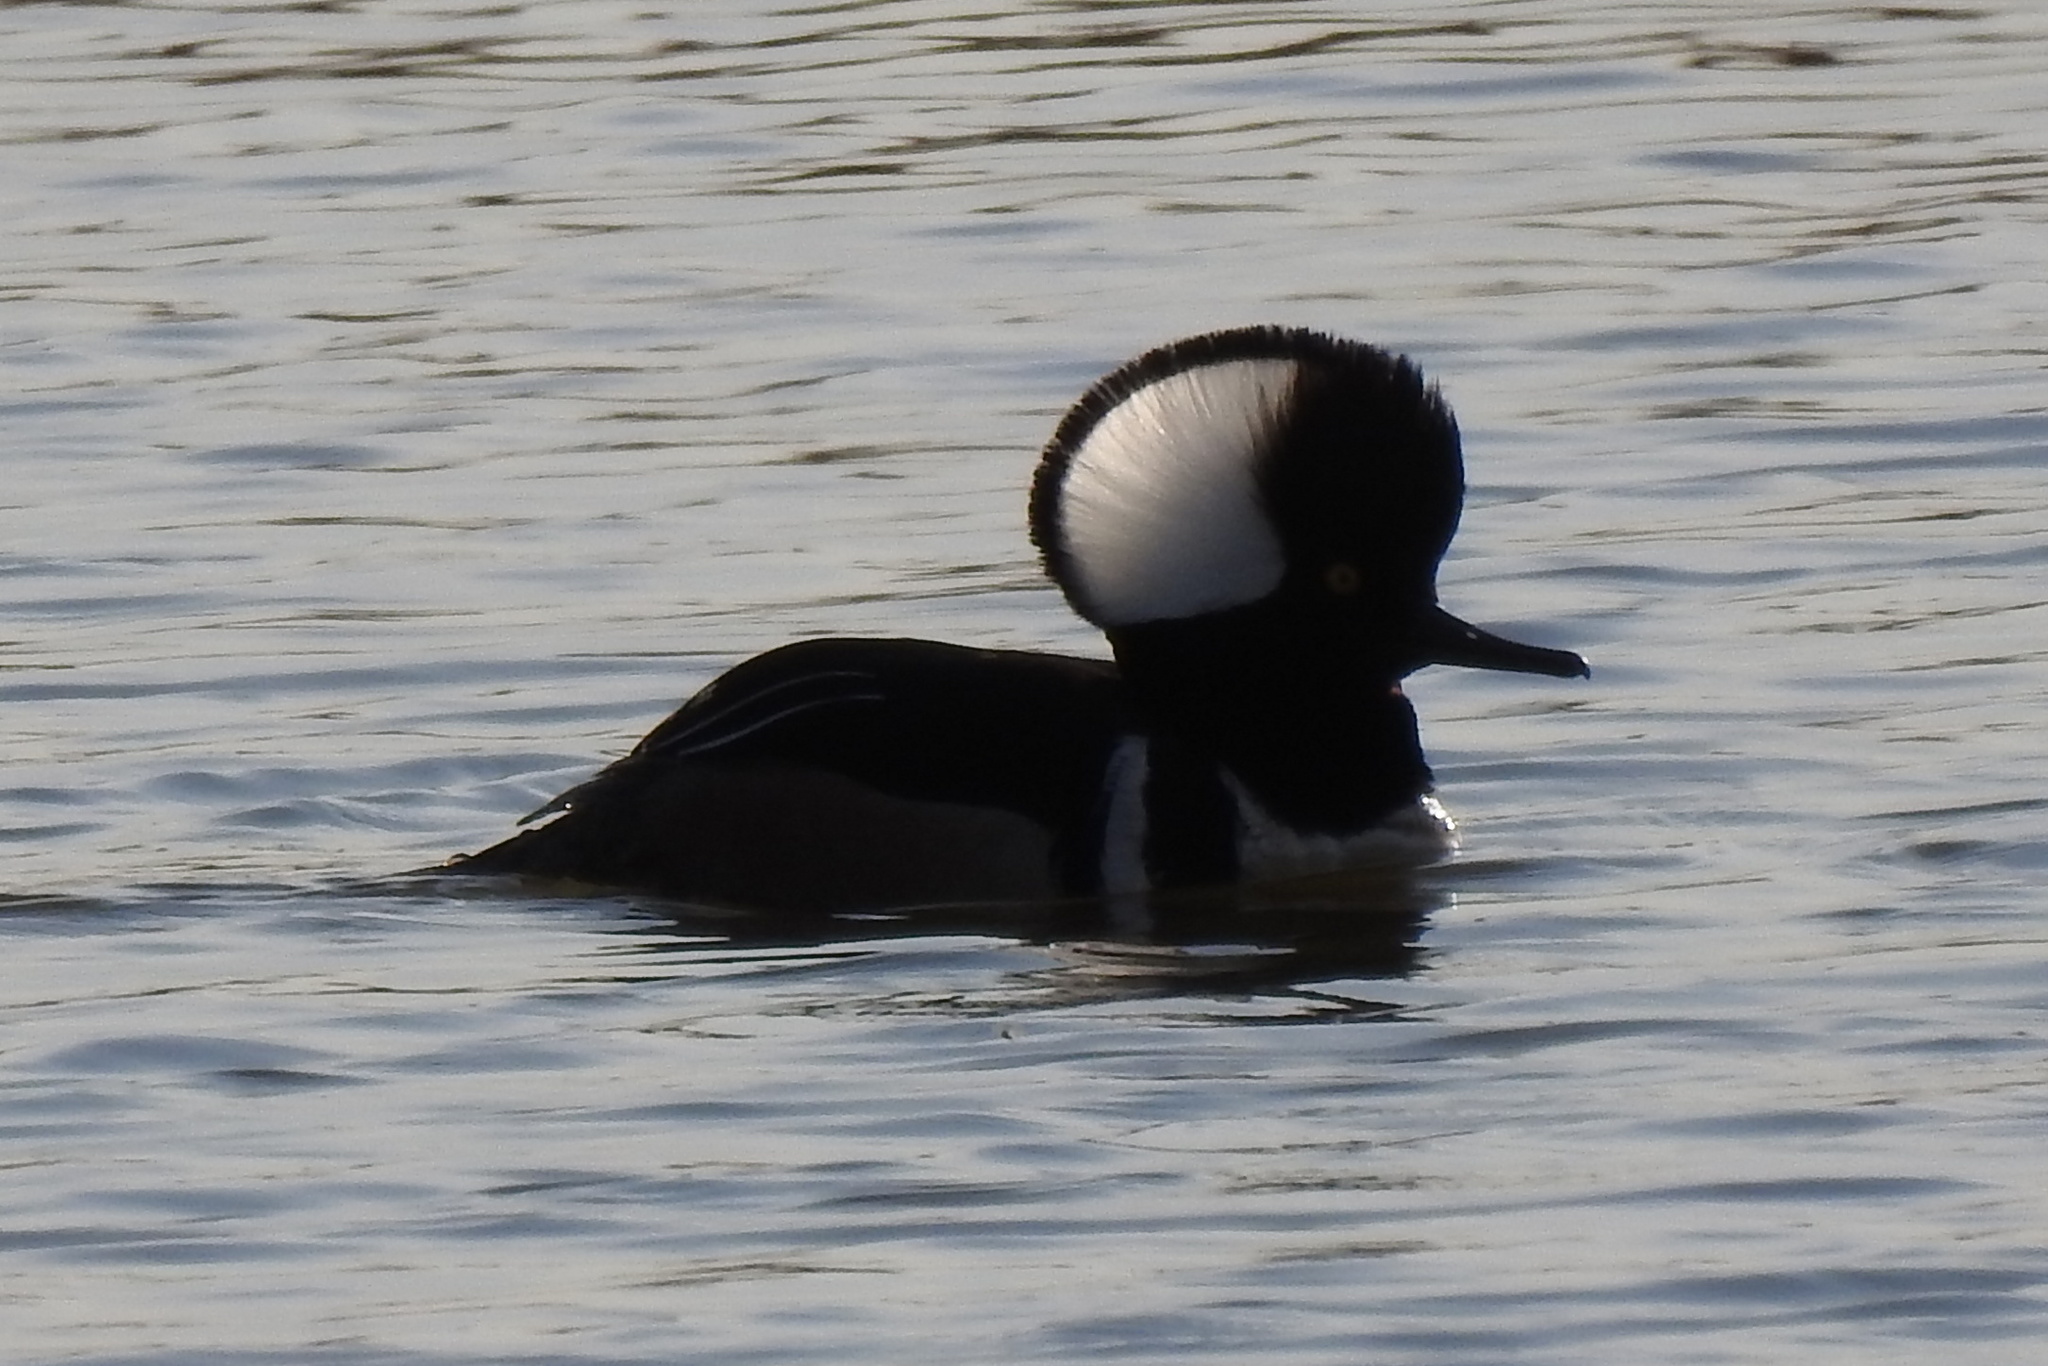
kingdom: Animalia
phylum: Chordata
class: Aves
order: Anseriformes
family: Anatidae
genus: Lophodytes
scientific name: Lophodytes cucullatus
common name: Hooded merganser
